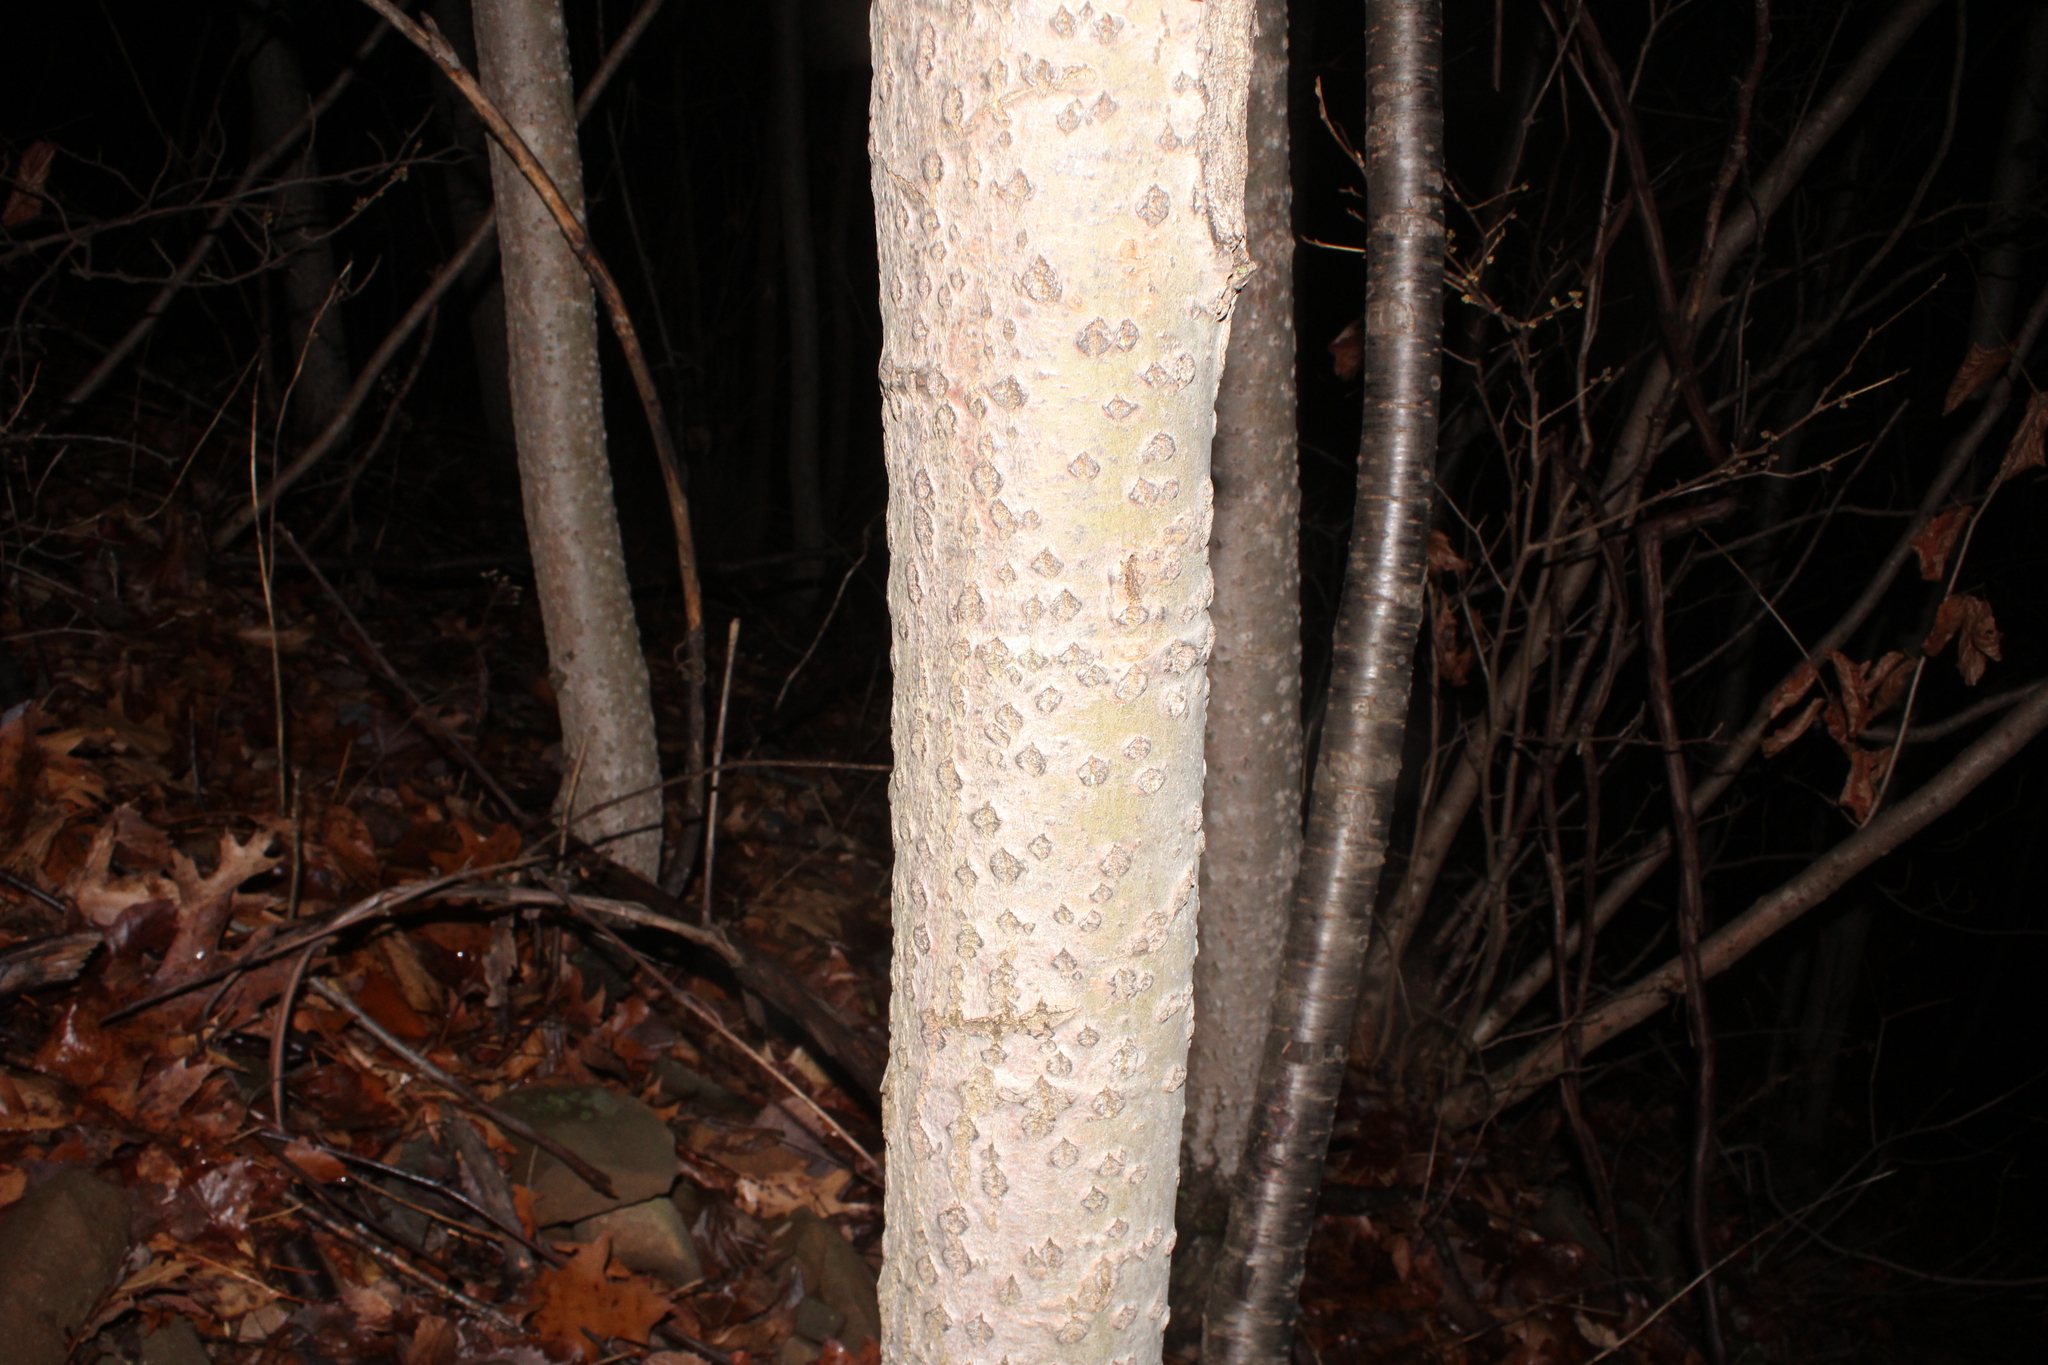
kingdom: Plantae
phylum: Tracheophyta
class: Magnoliopsida
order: Fagales
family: Fagaceae
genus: Fagus
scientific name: Fagus grandifolia
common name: American beech
